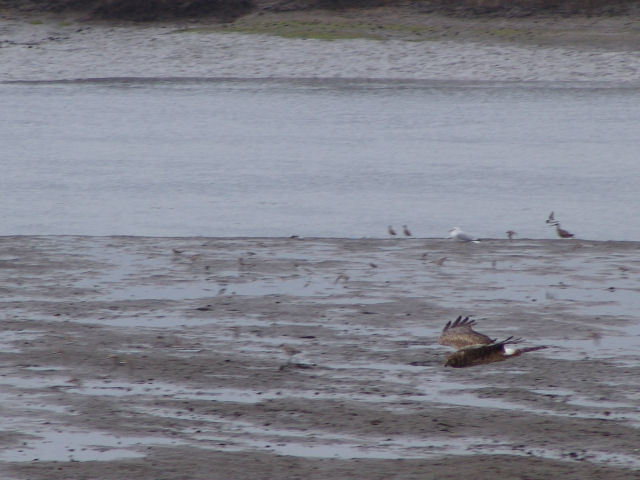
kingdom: Animalia
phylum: Chordata
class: Aves
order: Accipitriformes
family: Accipitridae
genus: Circus
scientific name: Circus cyaneus
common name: Hen harrier
